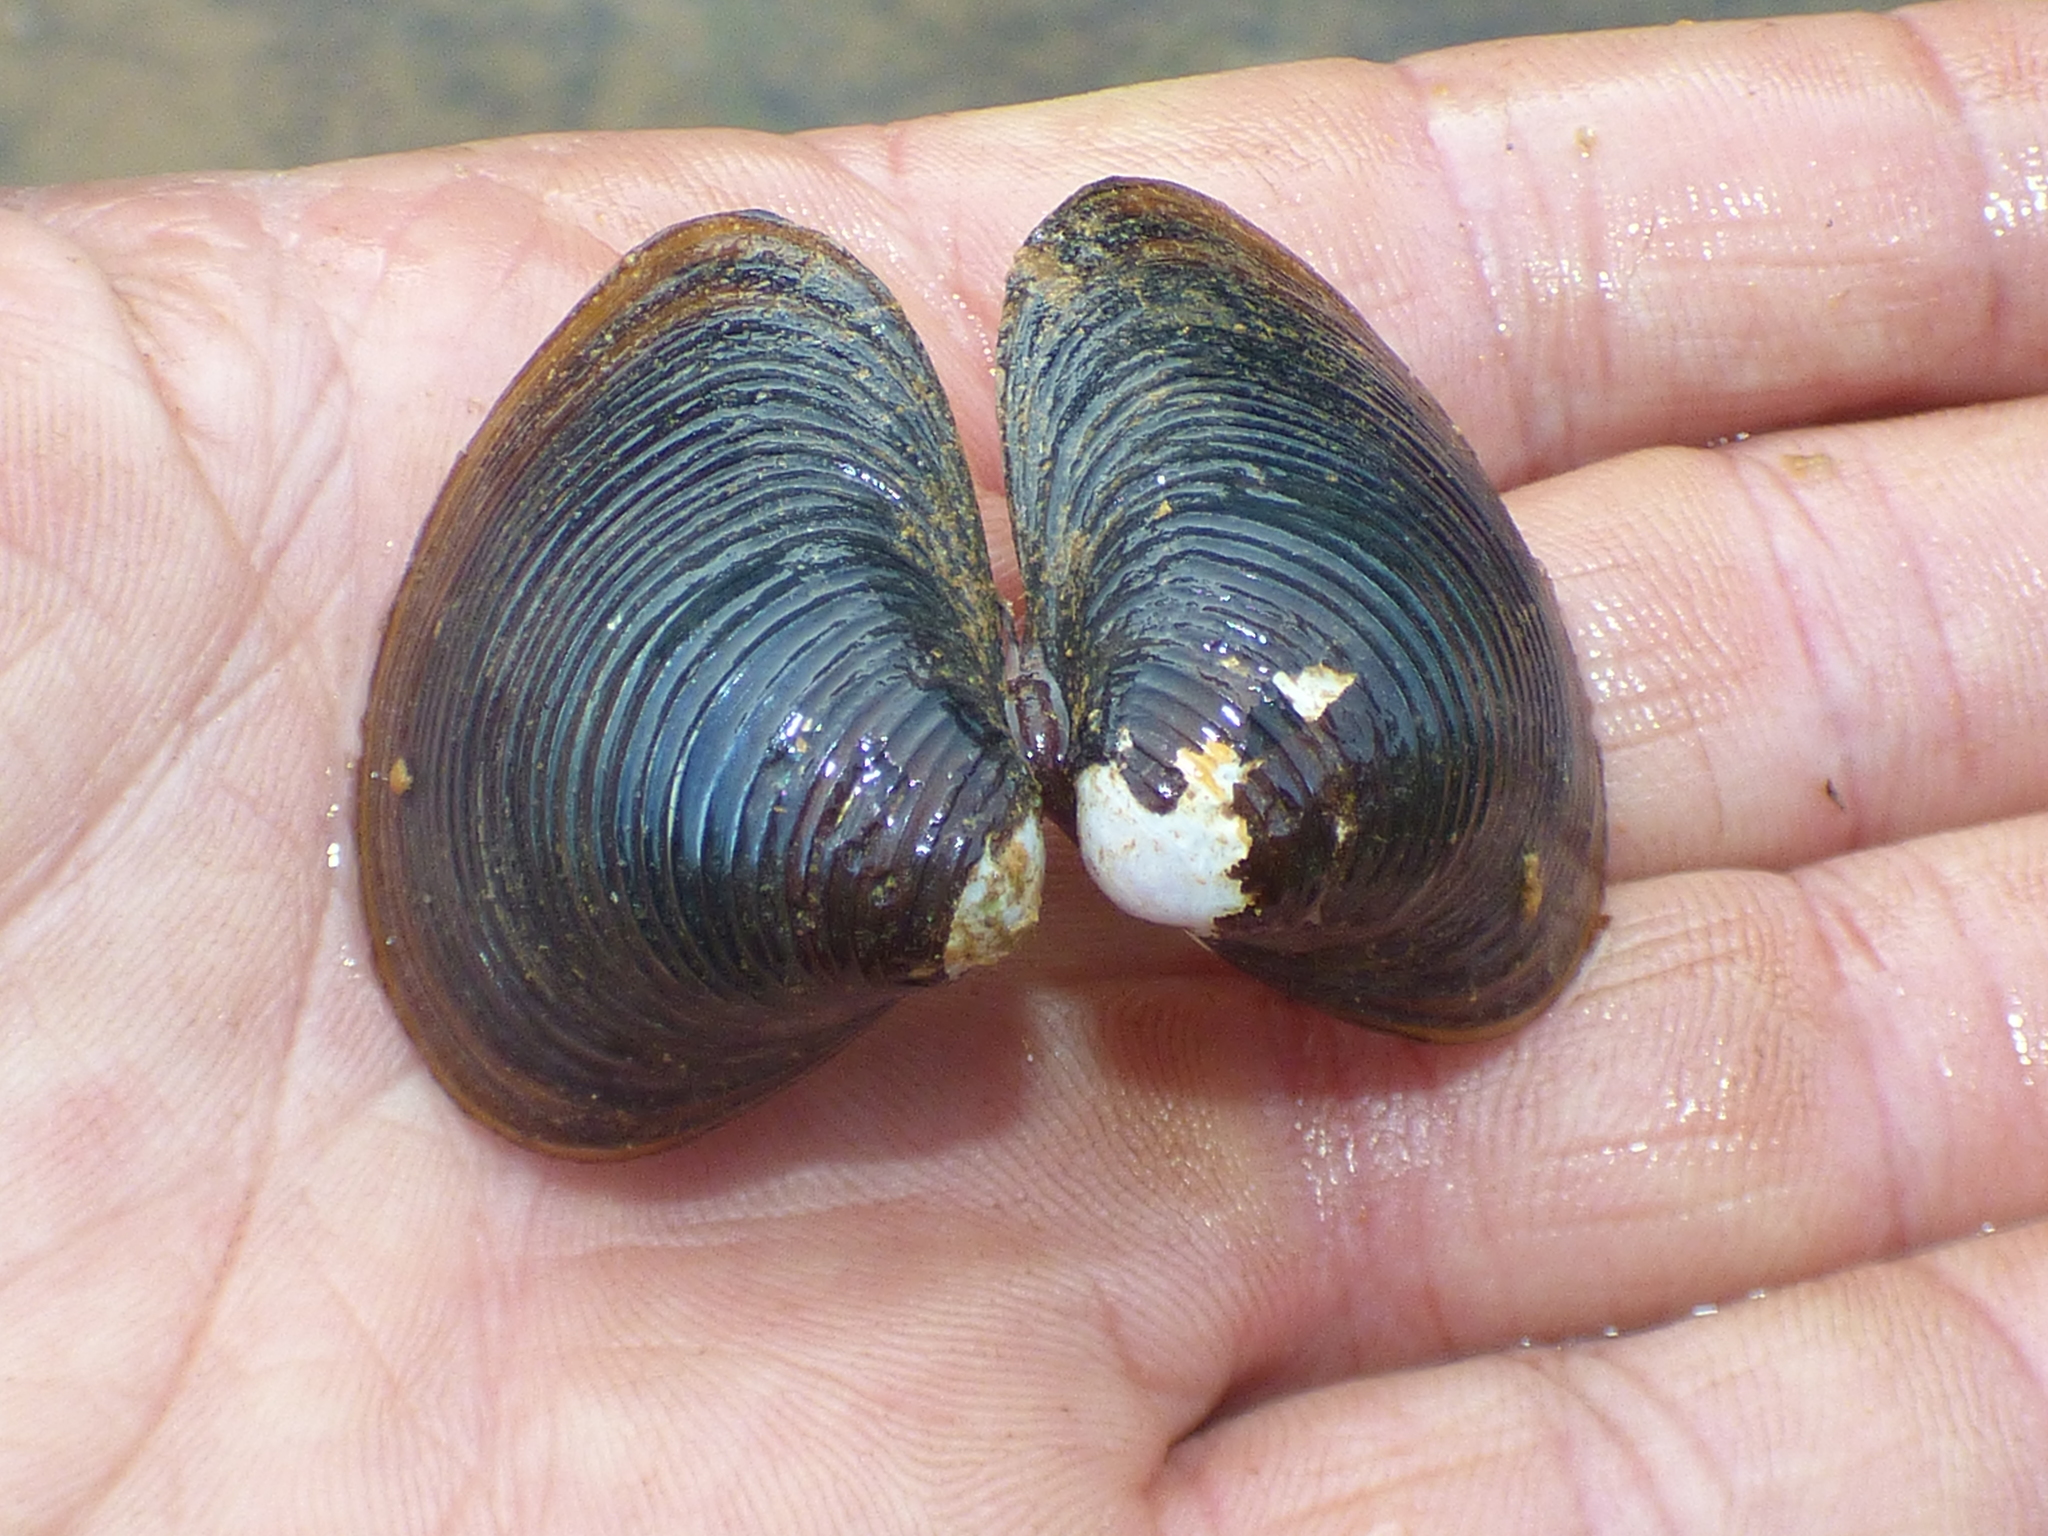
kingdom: Animalia
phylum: Mollusca
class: Bivalvia
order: Venerida
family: Cyrenidae
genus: Corbicula
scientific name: Corbicula fluminea
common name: Asian clam
